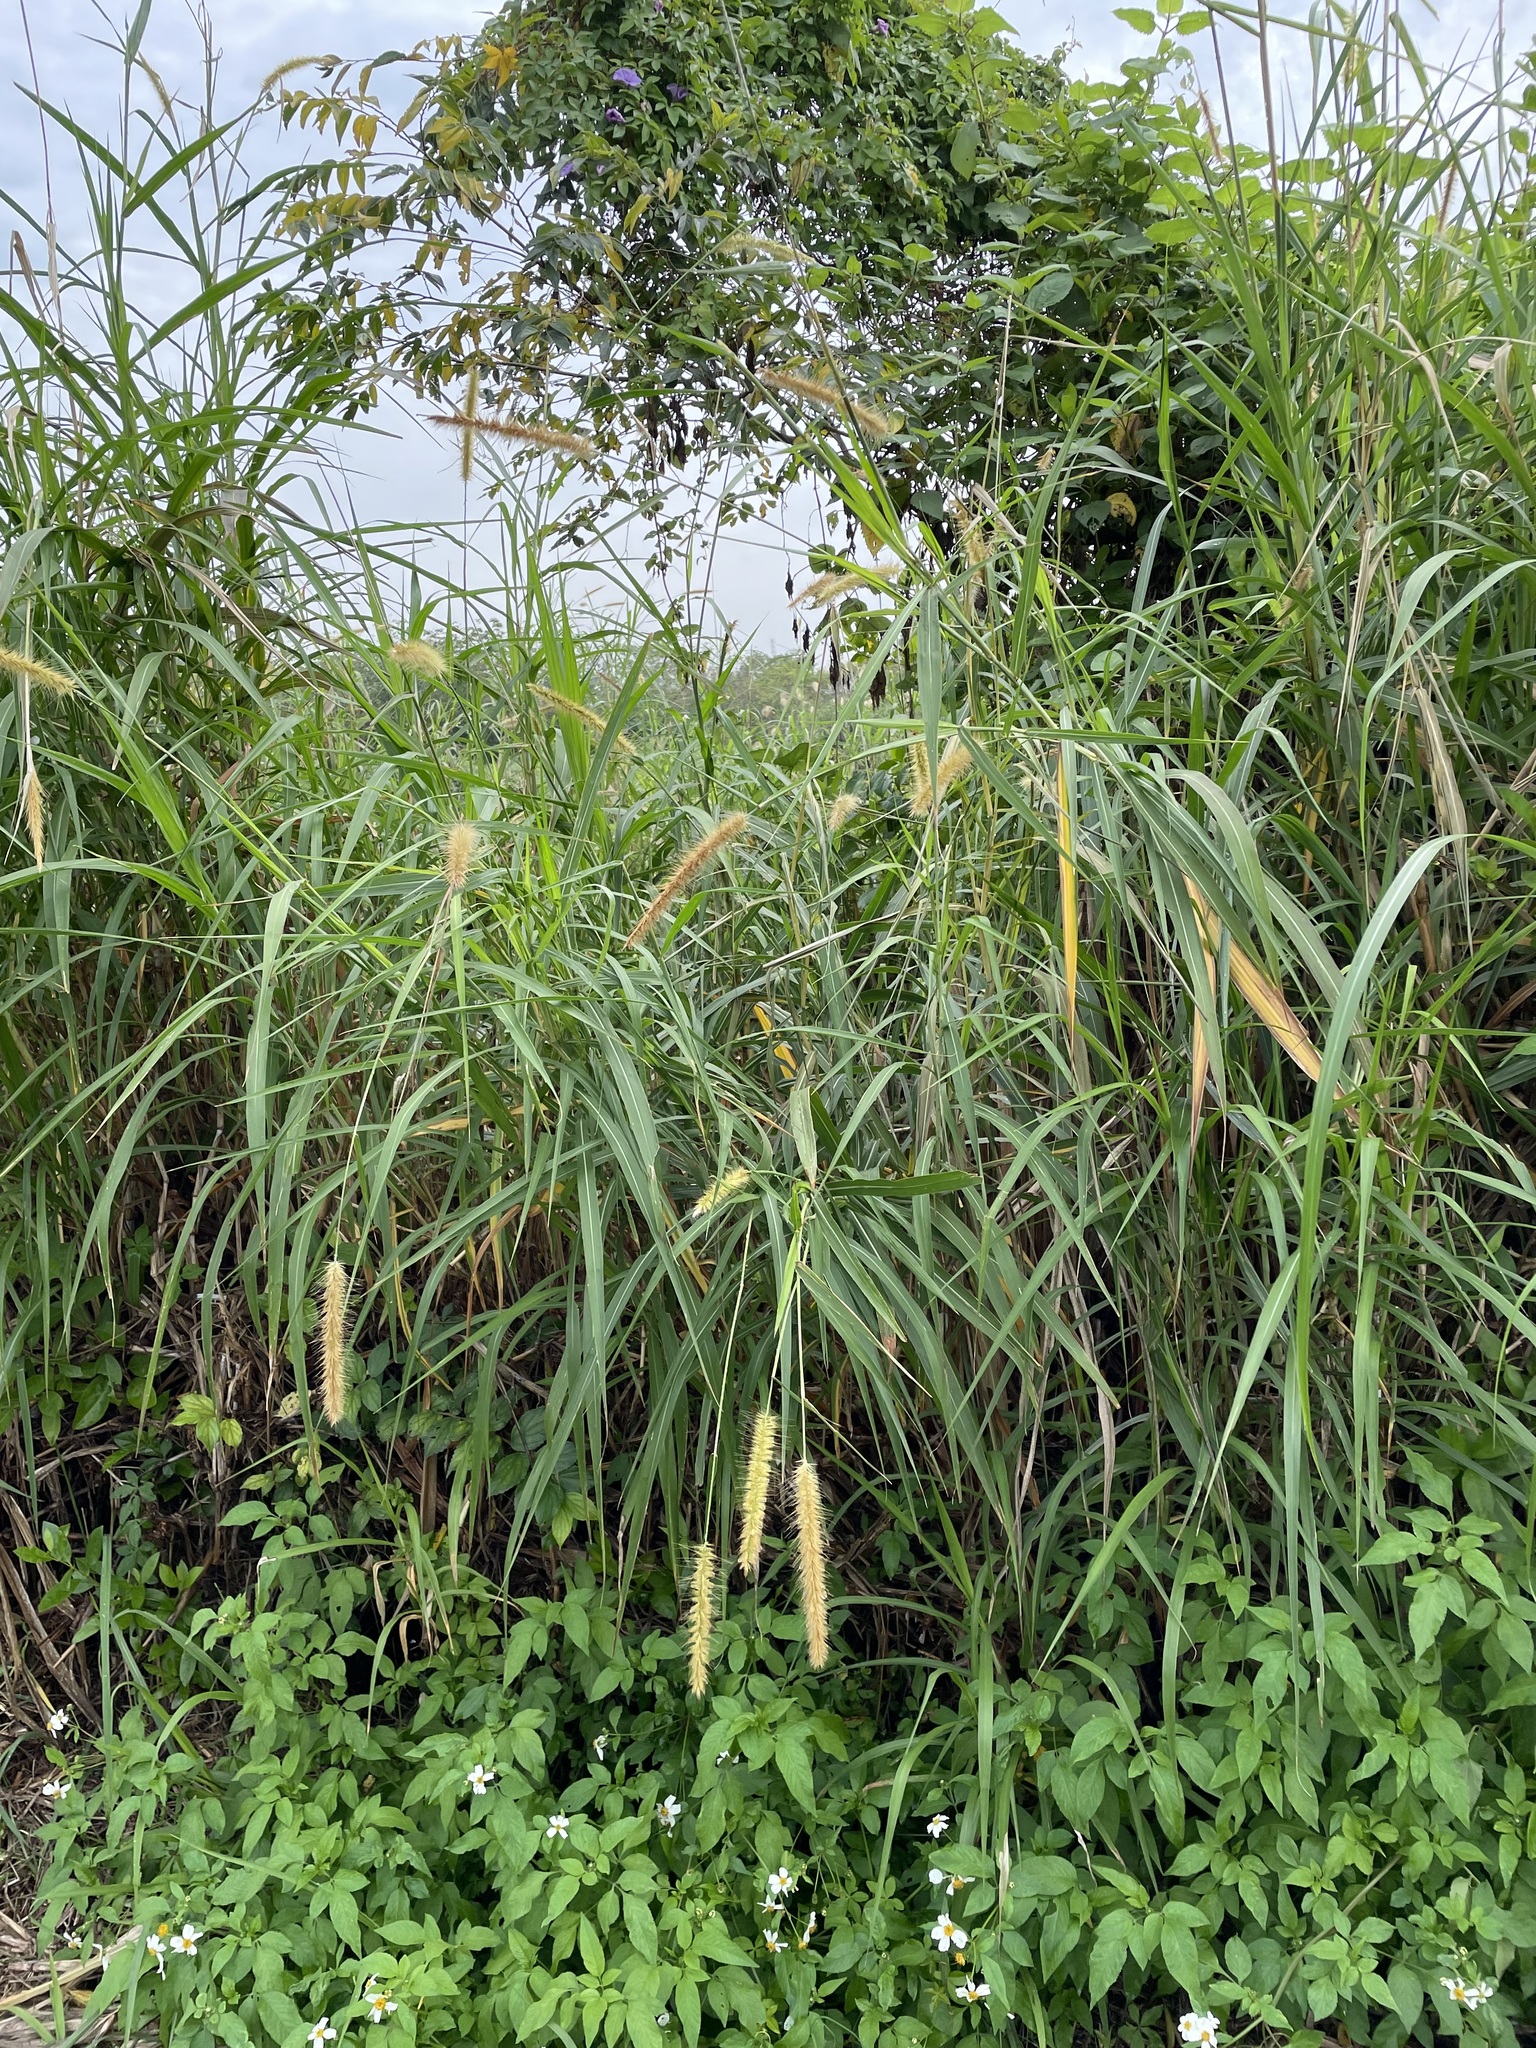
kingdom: Plantae
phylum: Tracheophyta
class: Liliopsida
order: Poales
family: Poaceae
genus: Cenchrus
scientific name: Cenchrus purpureus
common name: Elephant grass
